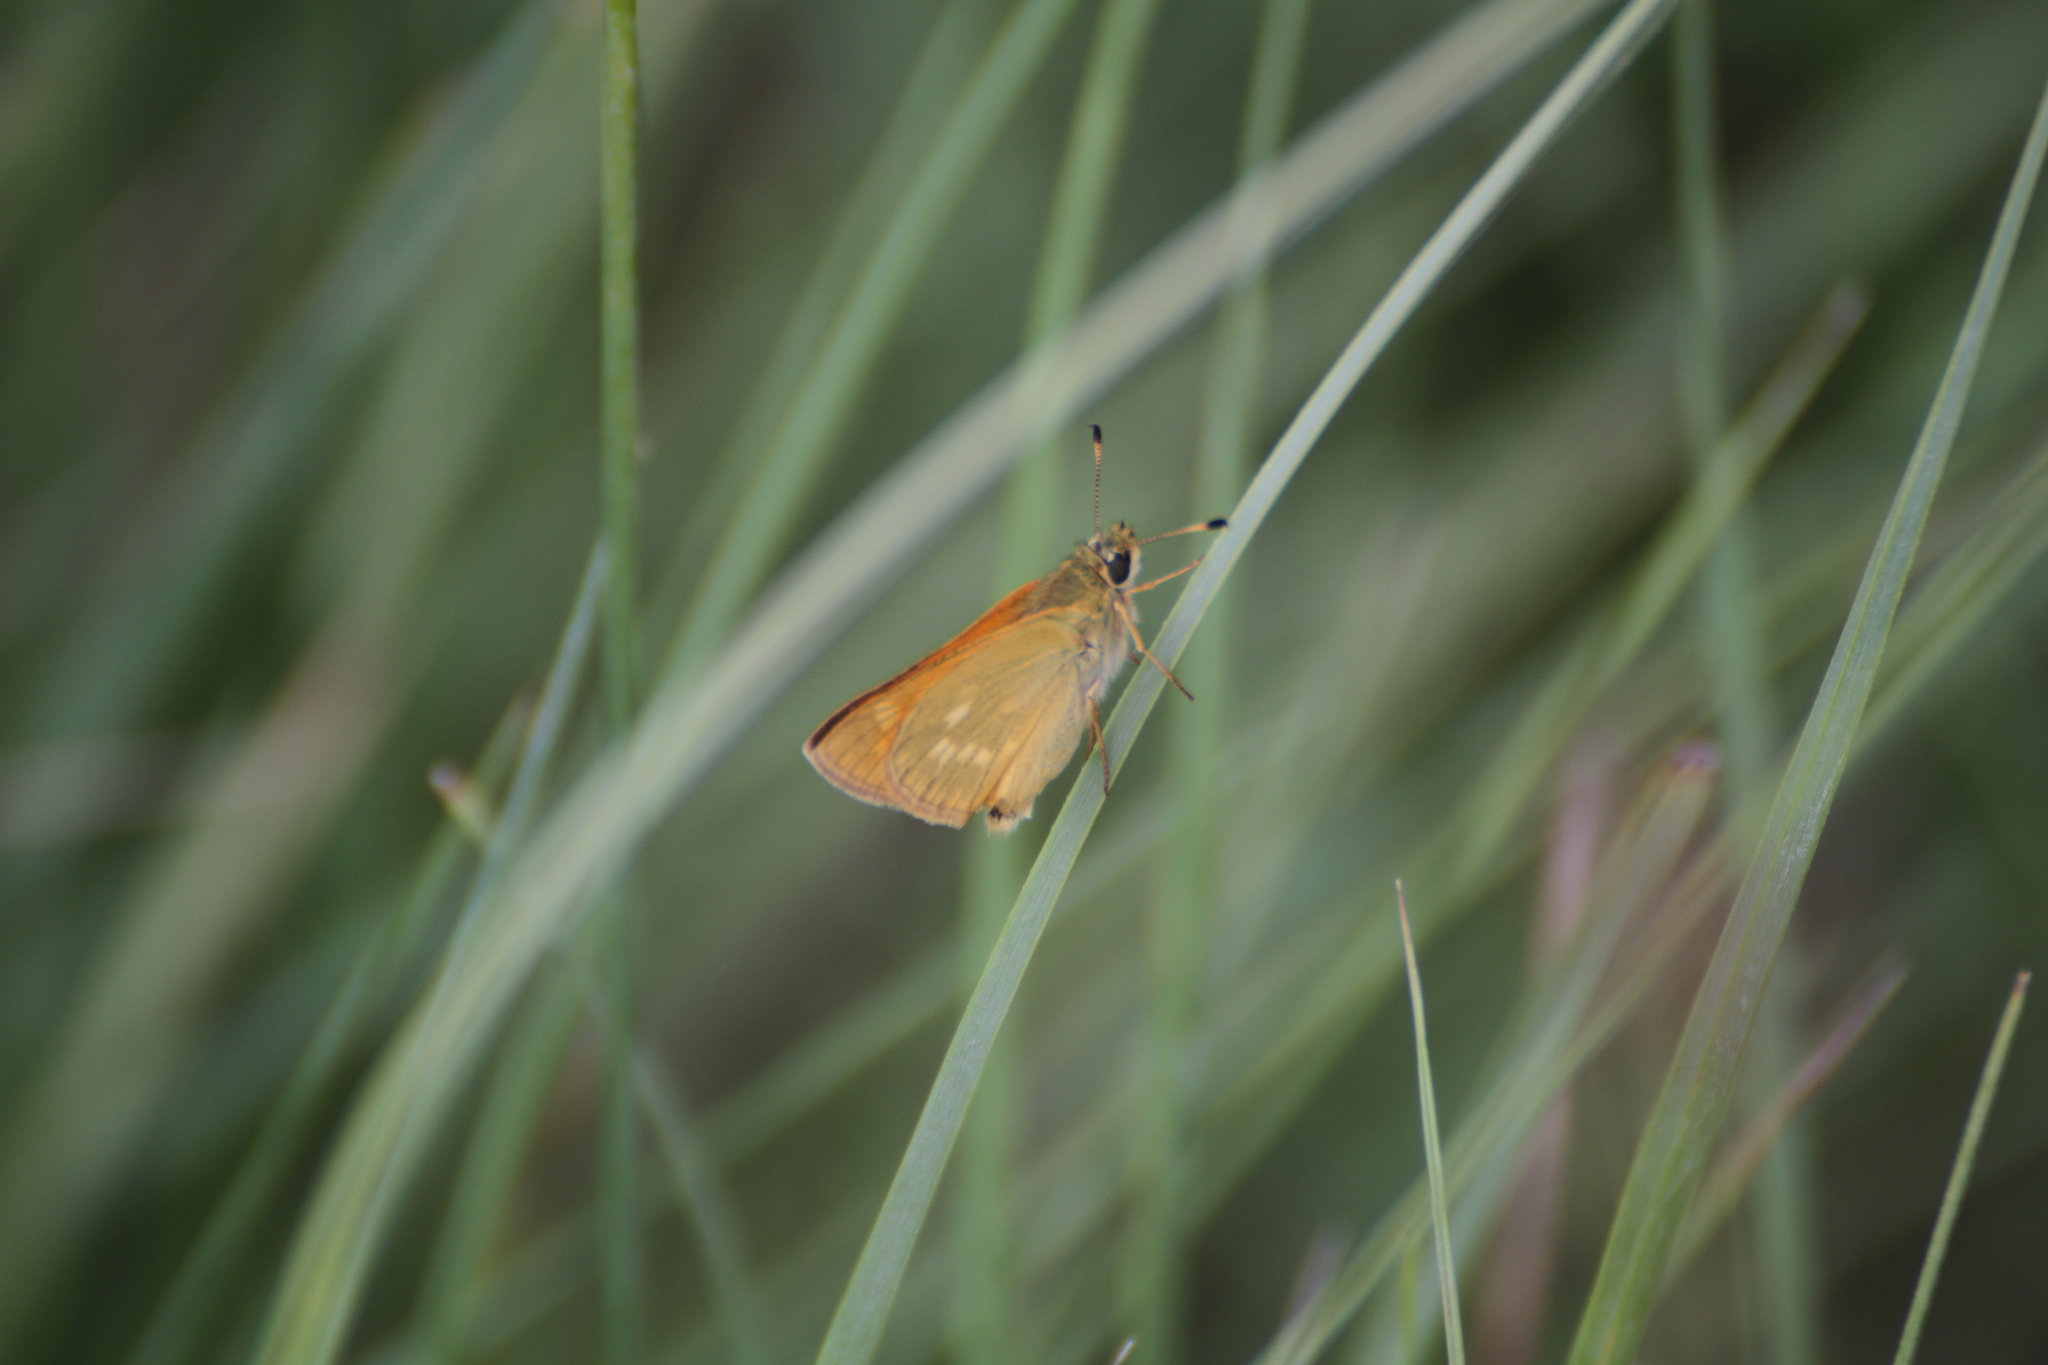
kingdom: Animalia
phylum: Arthropoda
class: Insecta
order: Lepidoptera
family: Hesperiidae
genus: Ochlodes
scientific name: Ochlodes venata
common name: Large skipper
